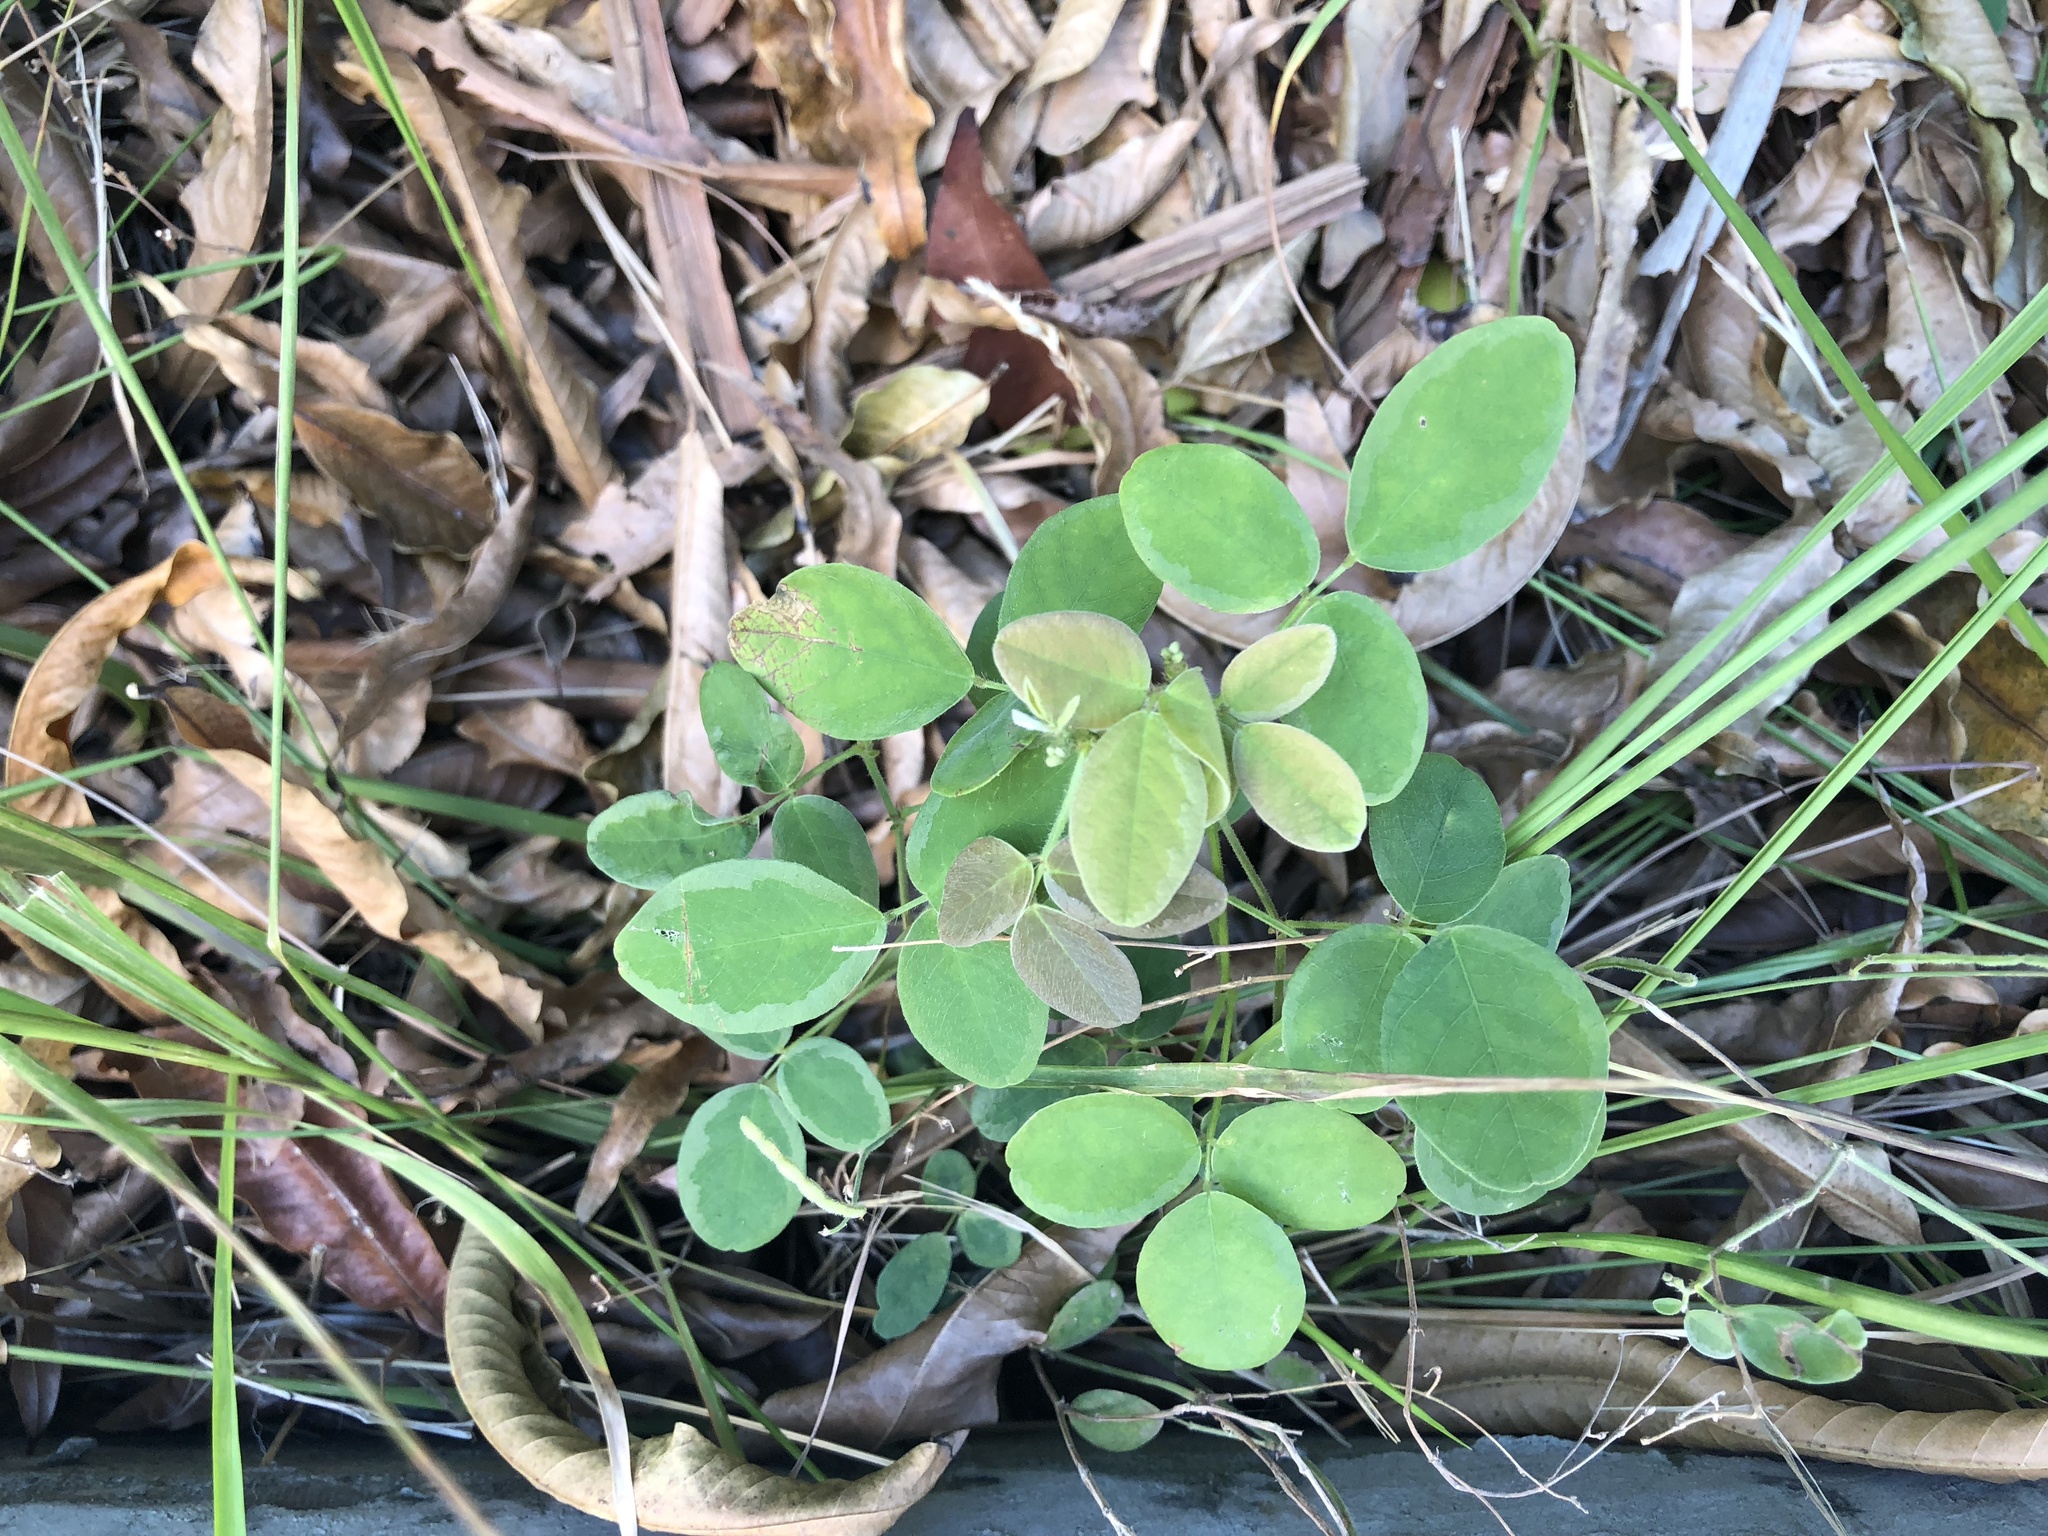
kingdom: Plantae
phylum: Tracheophyta
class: Magnoliopsida
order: Fabales
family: Fabaceae
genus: Desmodium
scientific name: Desmodium scorpiurus
